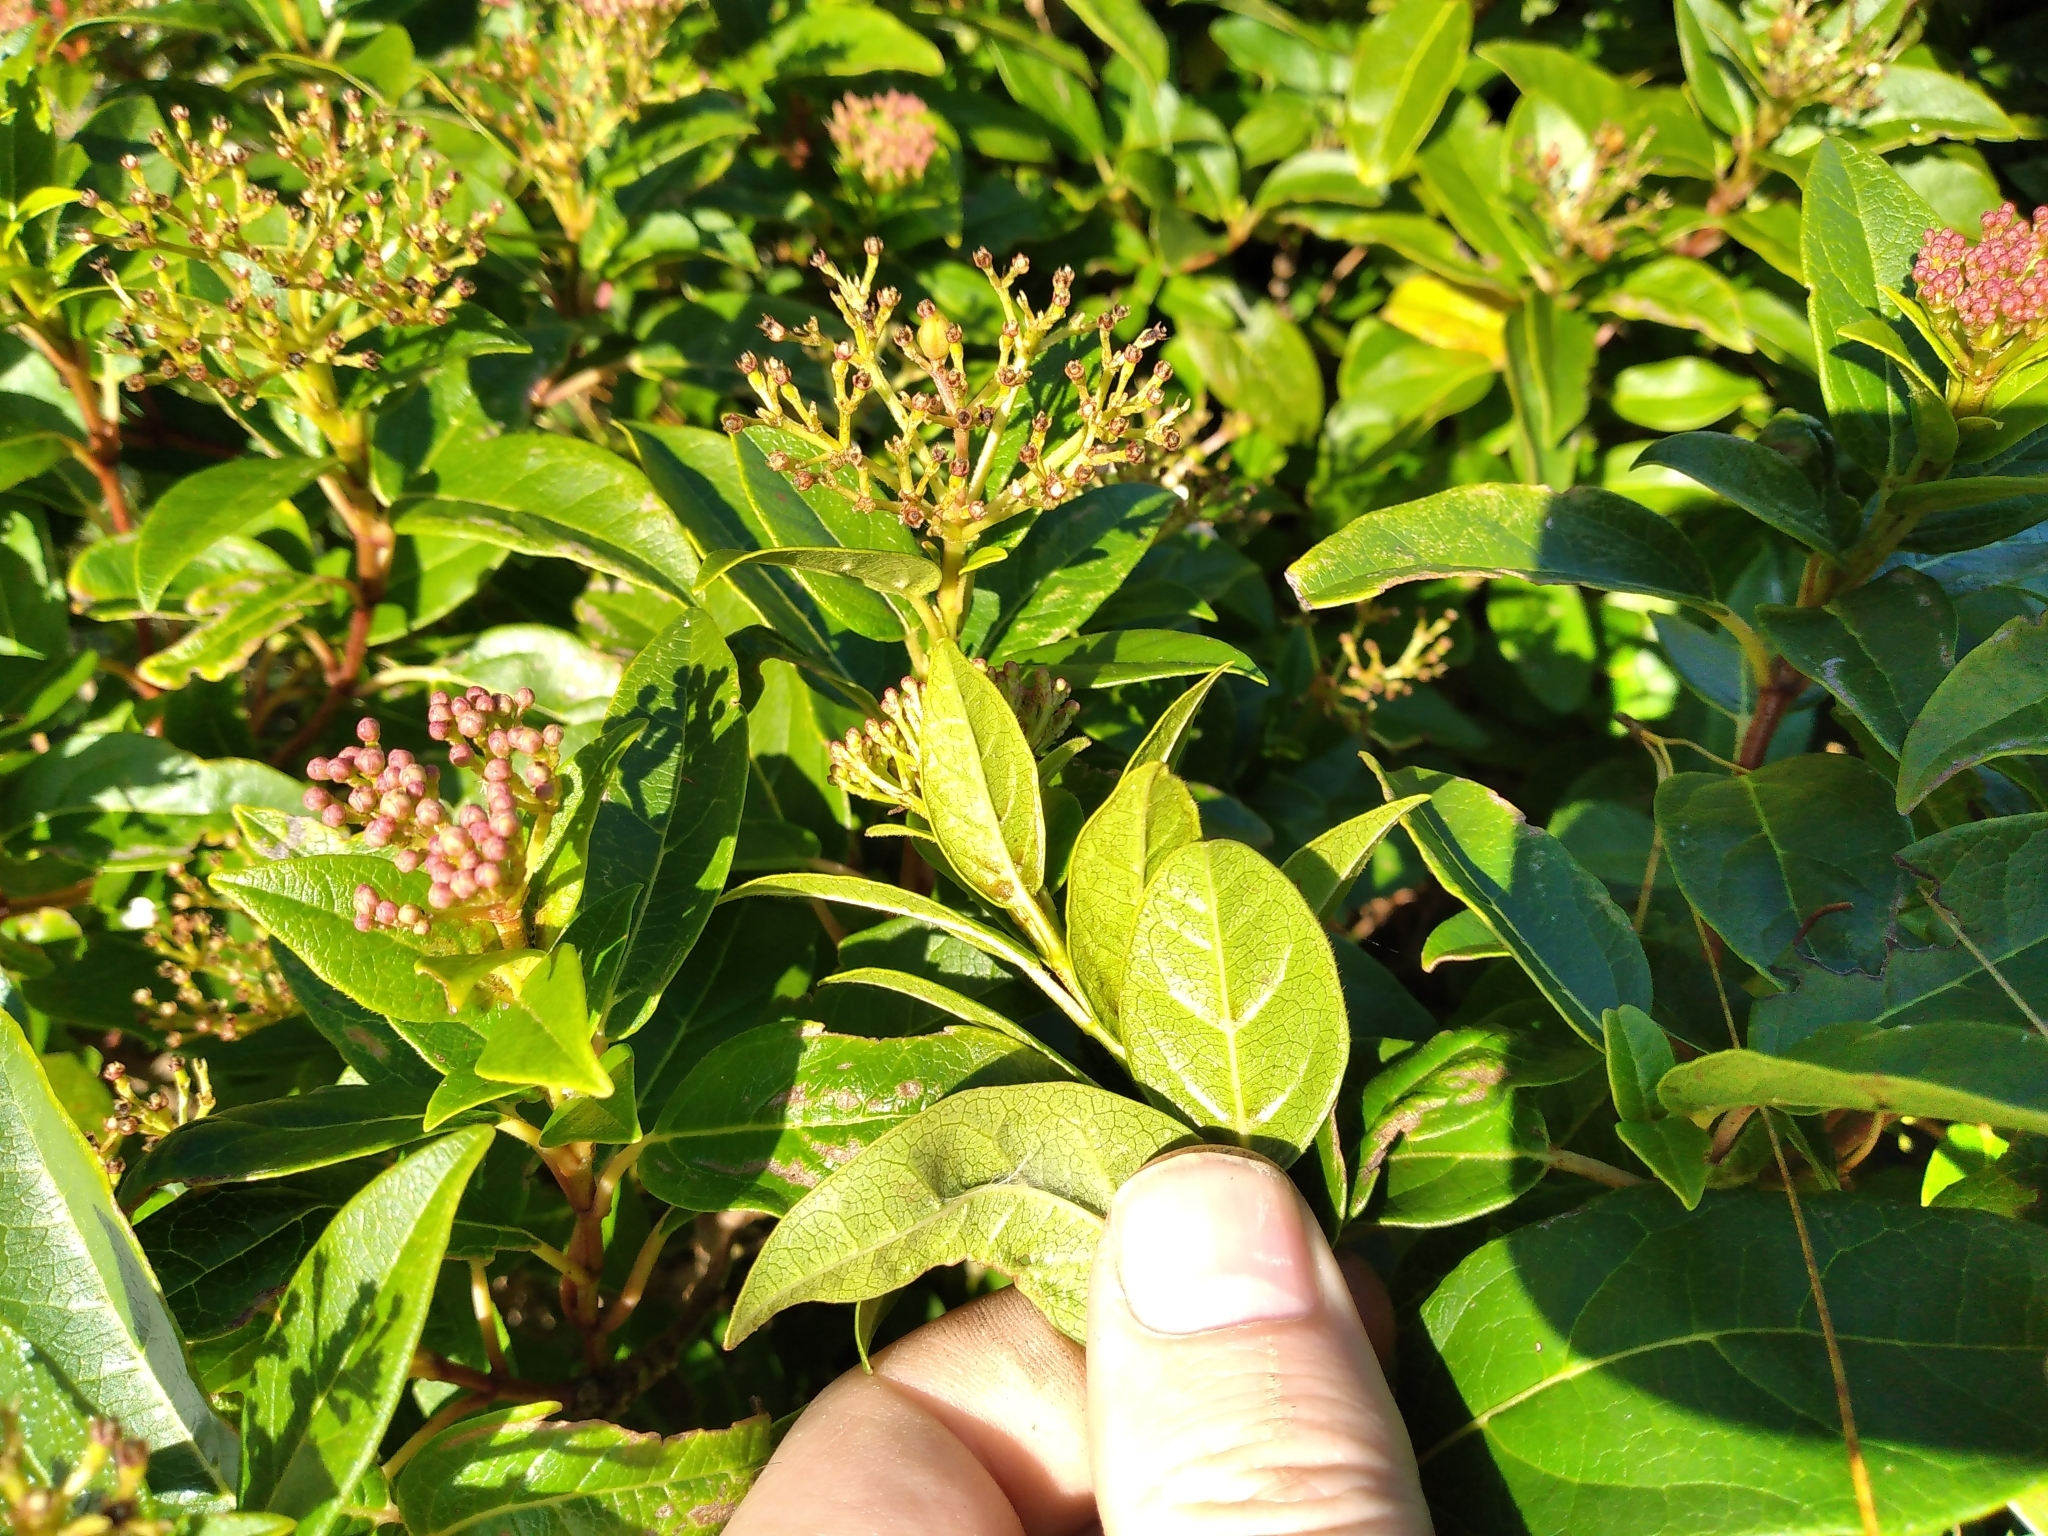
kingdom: Plantae
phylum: Tracheophyta
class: Magnoliopsida
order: Dipsacales
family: Viburnaceae
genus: Viburnum
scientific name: Viburnum tinus
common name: Laurustinus
